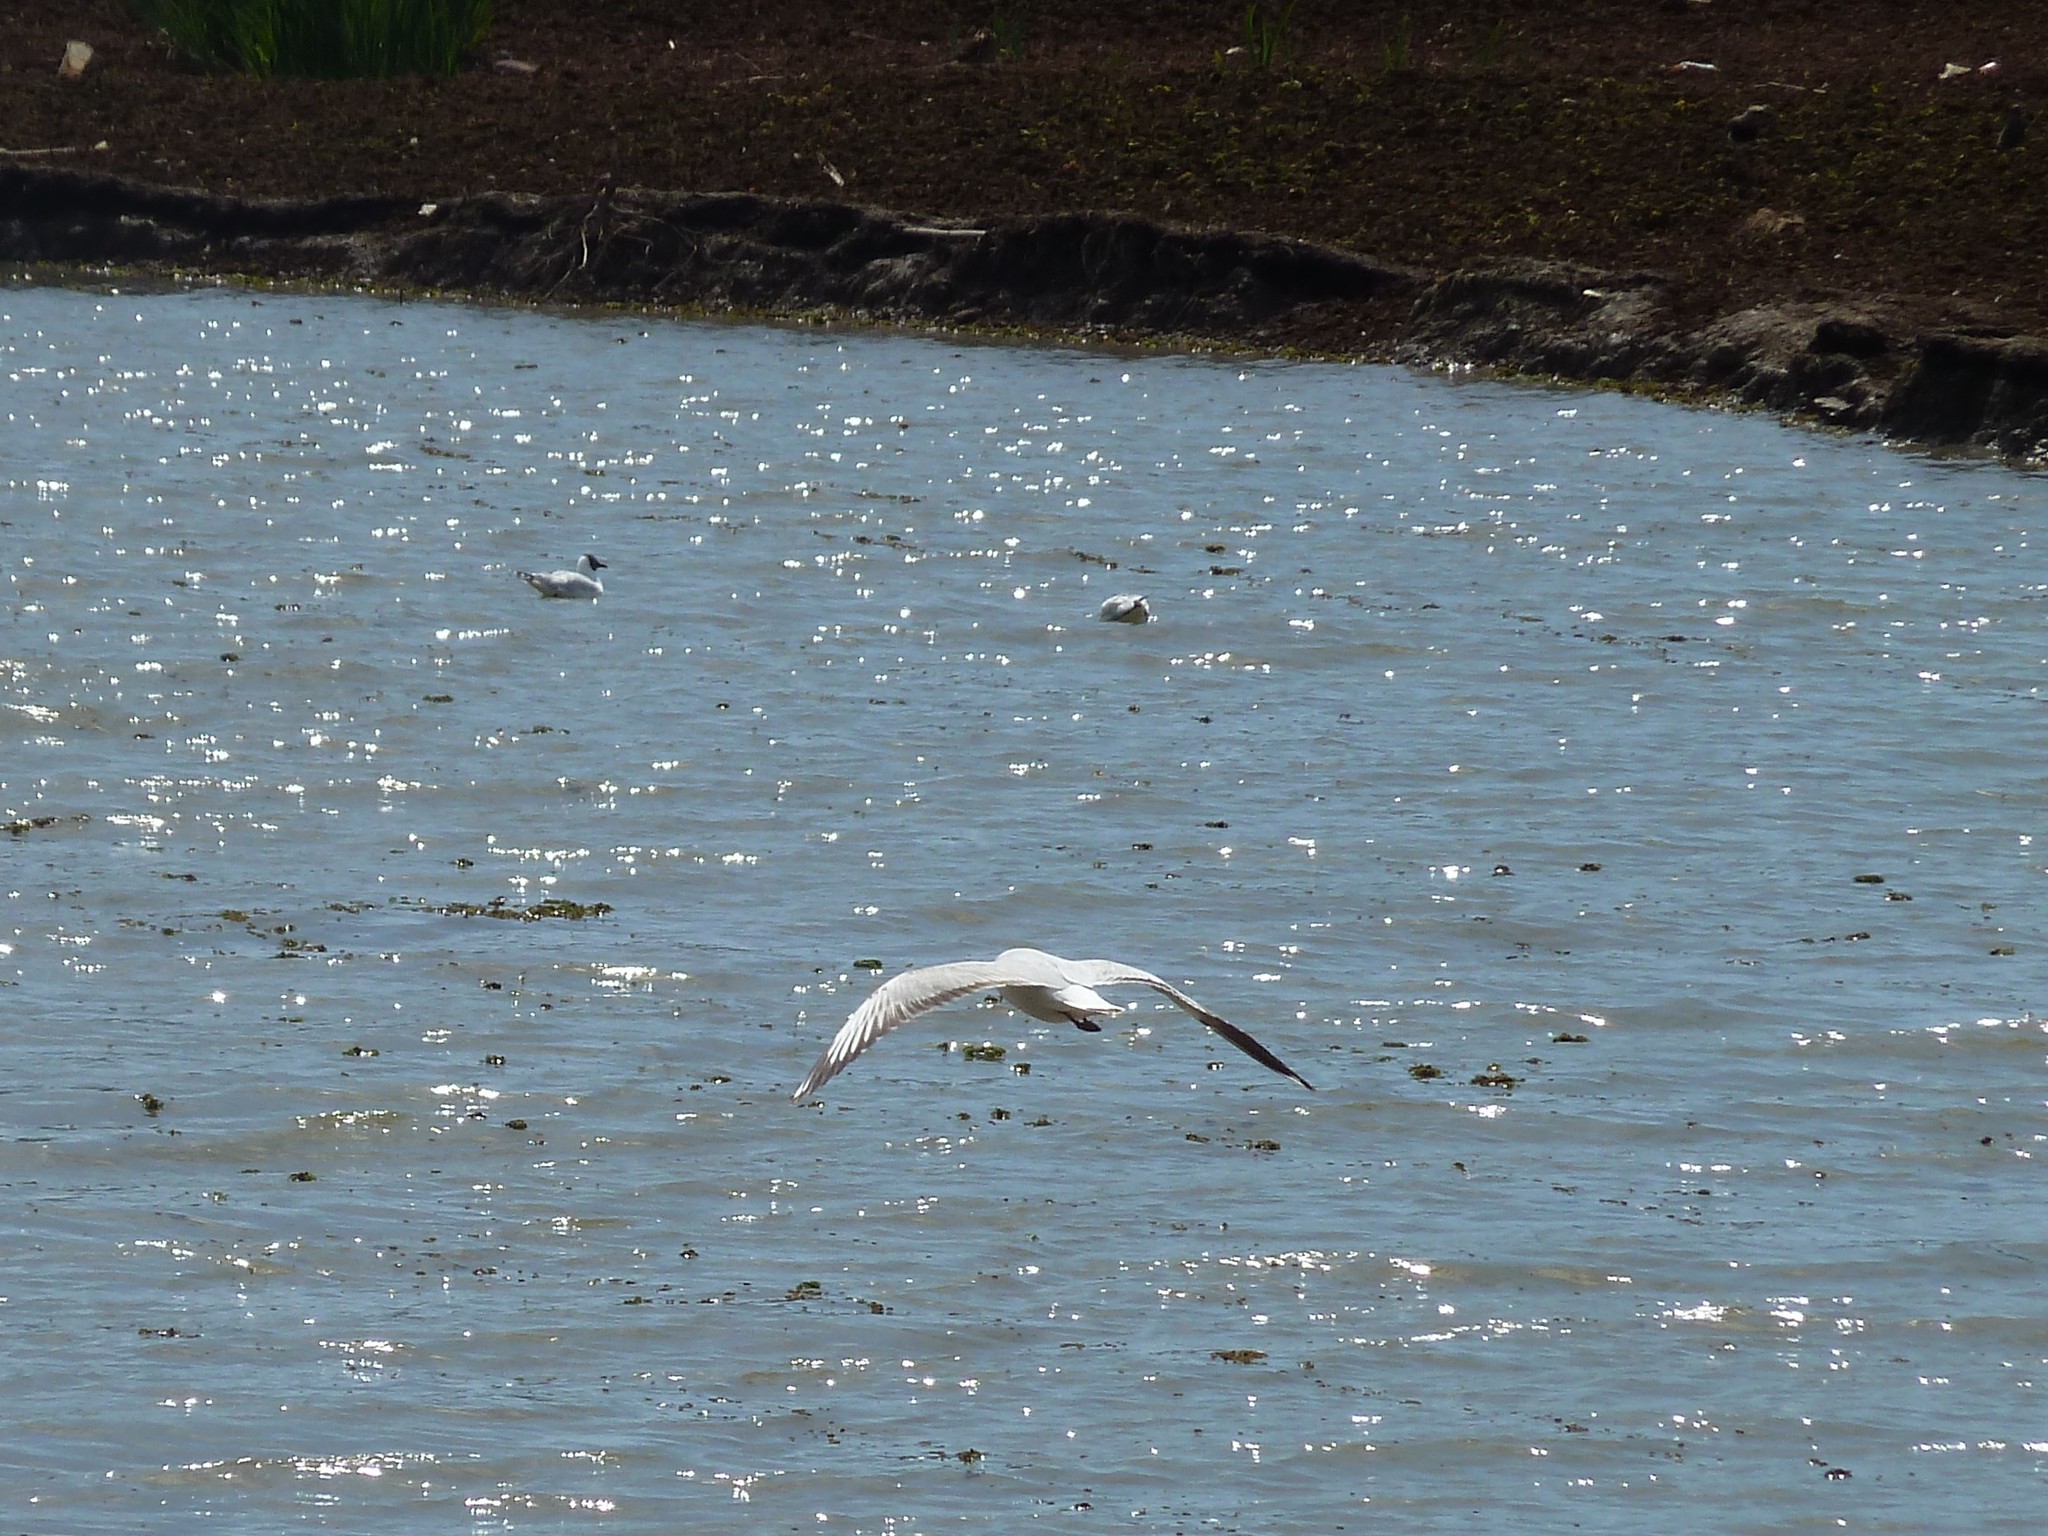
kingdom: Animalia
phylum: Chordata
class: Aves
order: Charadriiformes
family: Laridae
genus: Chroicocephalus
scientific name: Chroicocephalus maculipennis
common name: Brown-hooded gull
